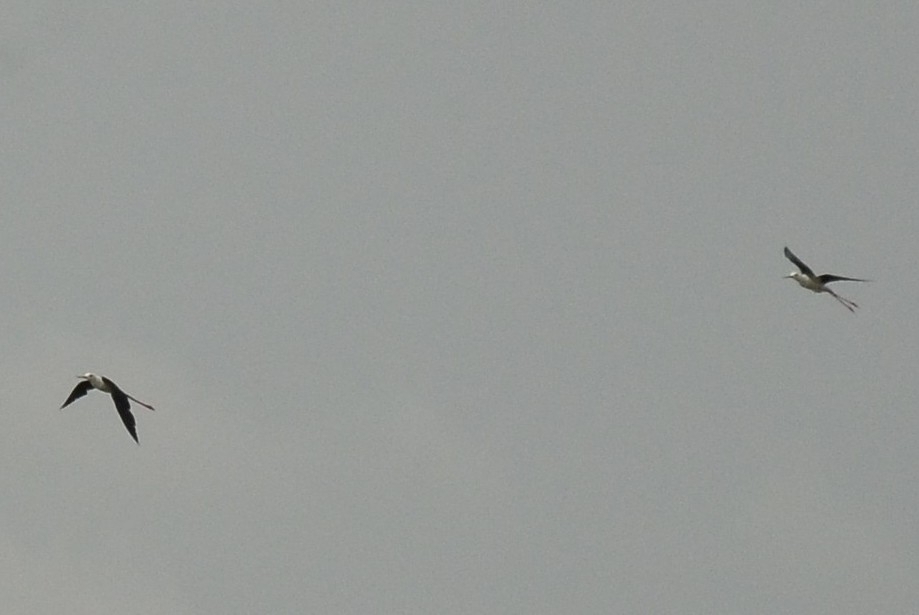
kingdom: Animalia
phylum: Chordata
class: Aves
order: Charadriiformes
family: Recurvirostridae
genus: Himantopus
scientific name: Himantopus himantopus
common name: Black-winged stilt
